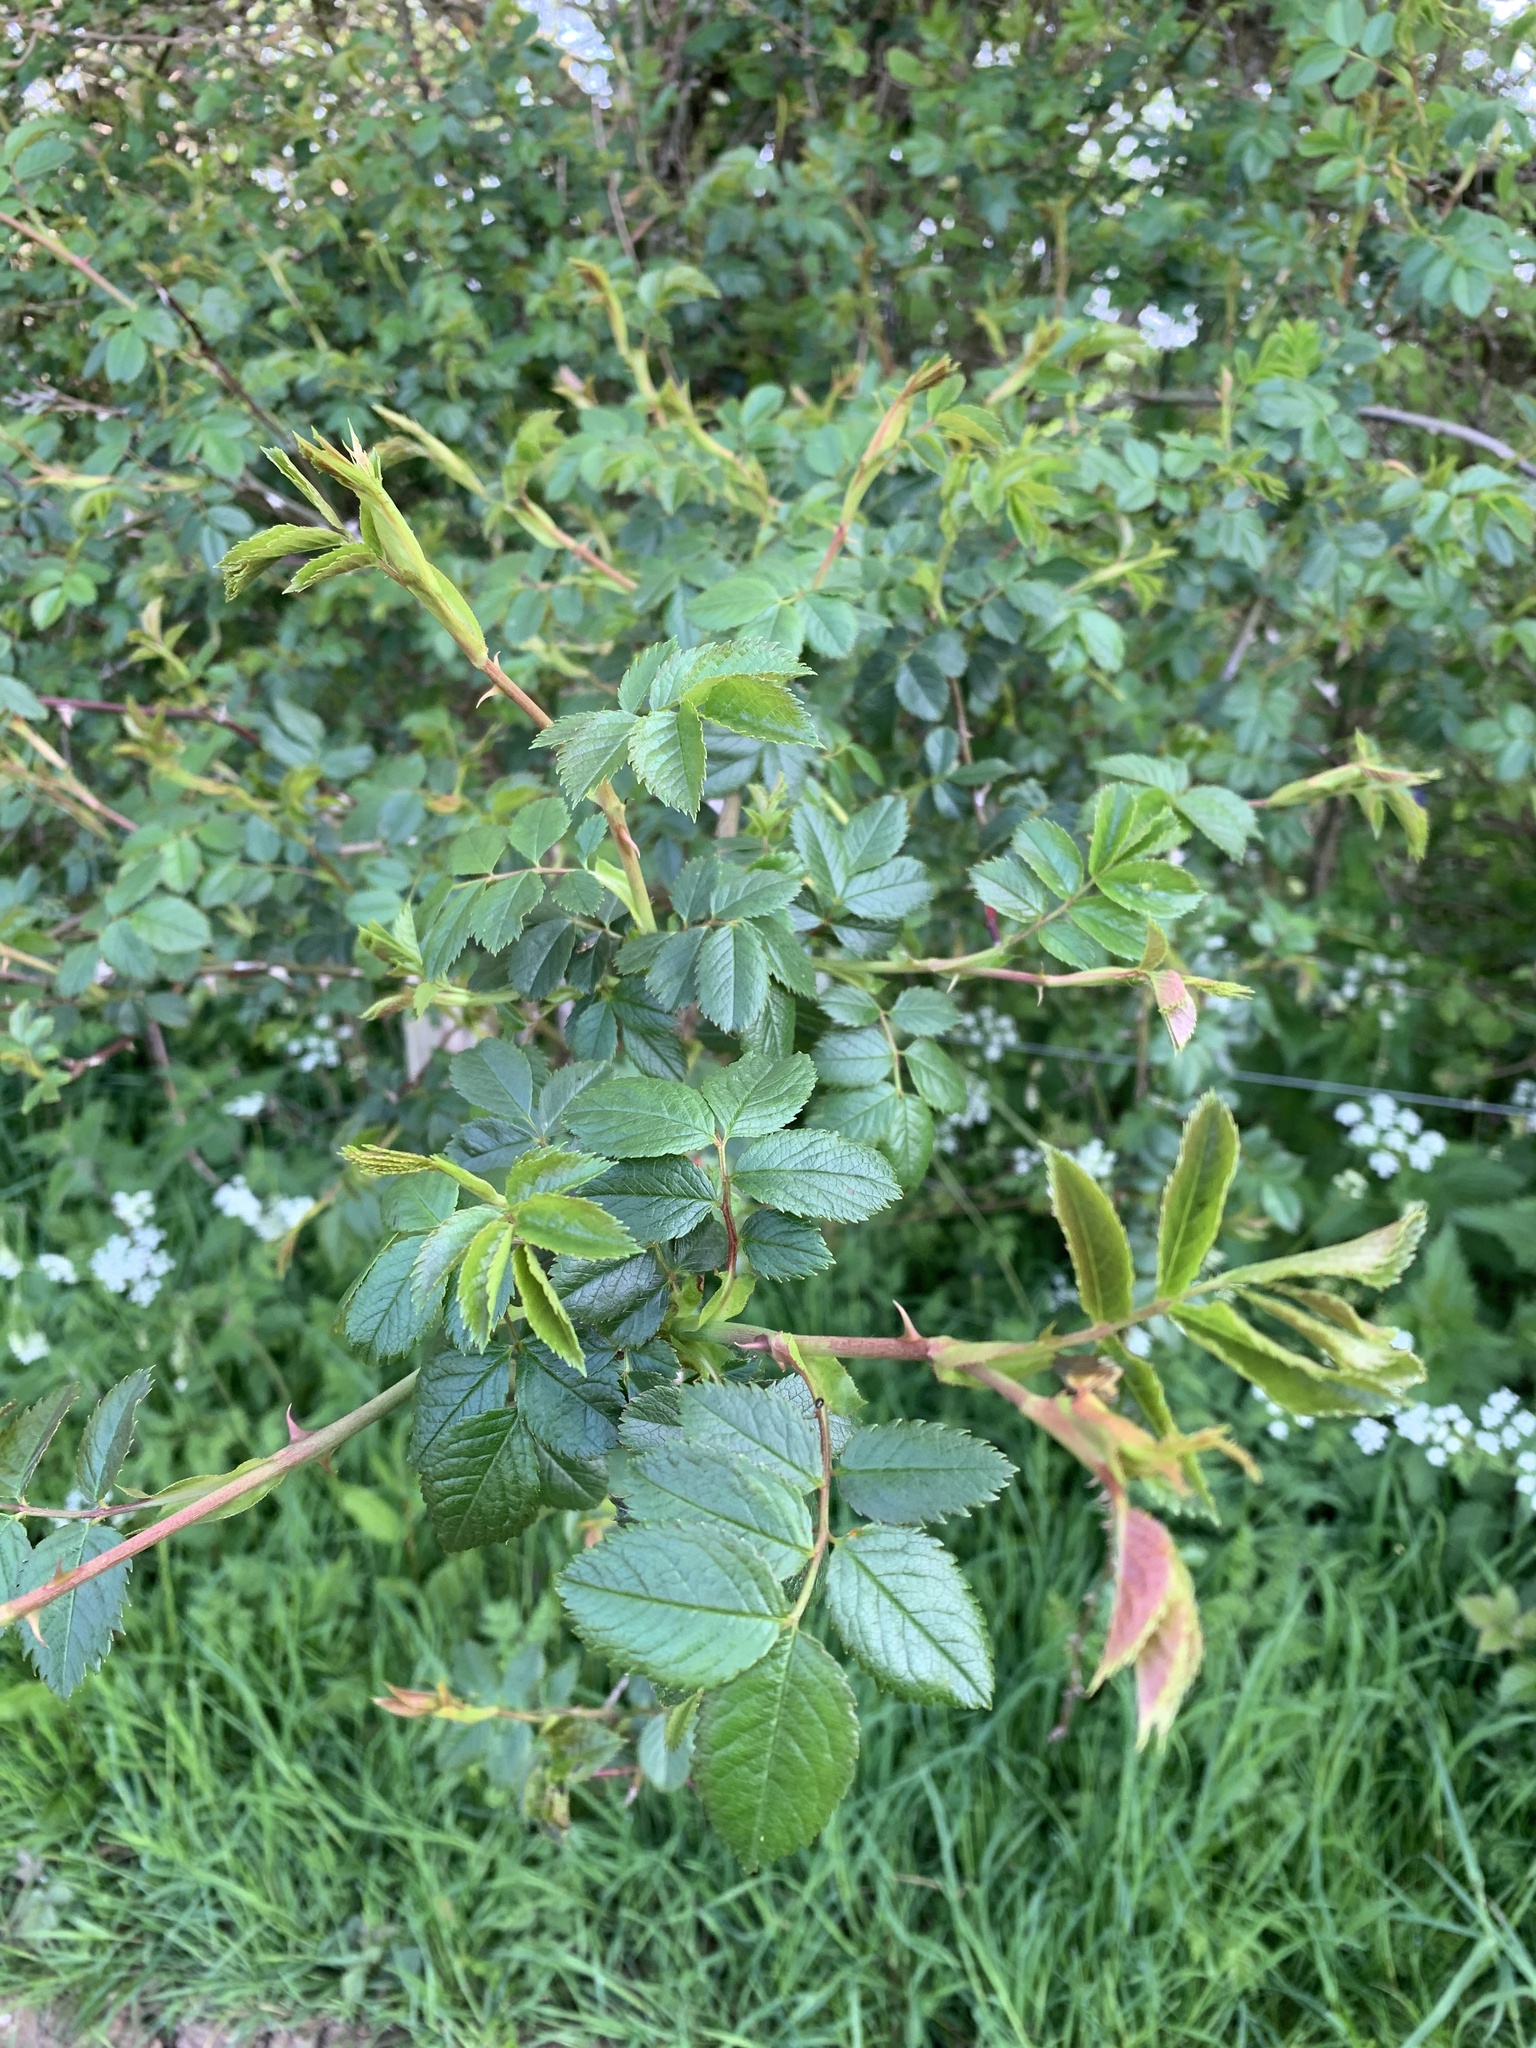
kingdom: Plantae
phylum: Tracheophyta
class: Magnoliopsida
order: Rosales
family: Rosaceae
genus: Rosa
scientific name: Rosa canina
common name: Dog rose
